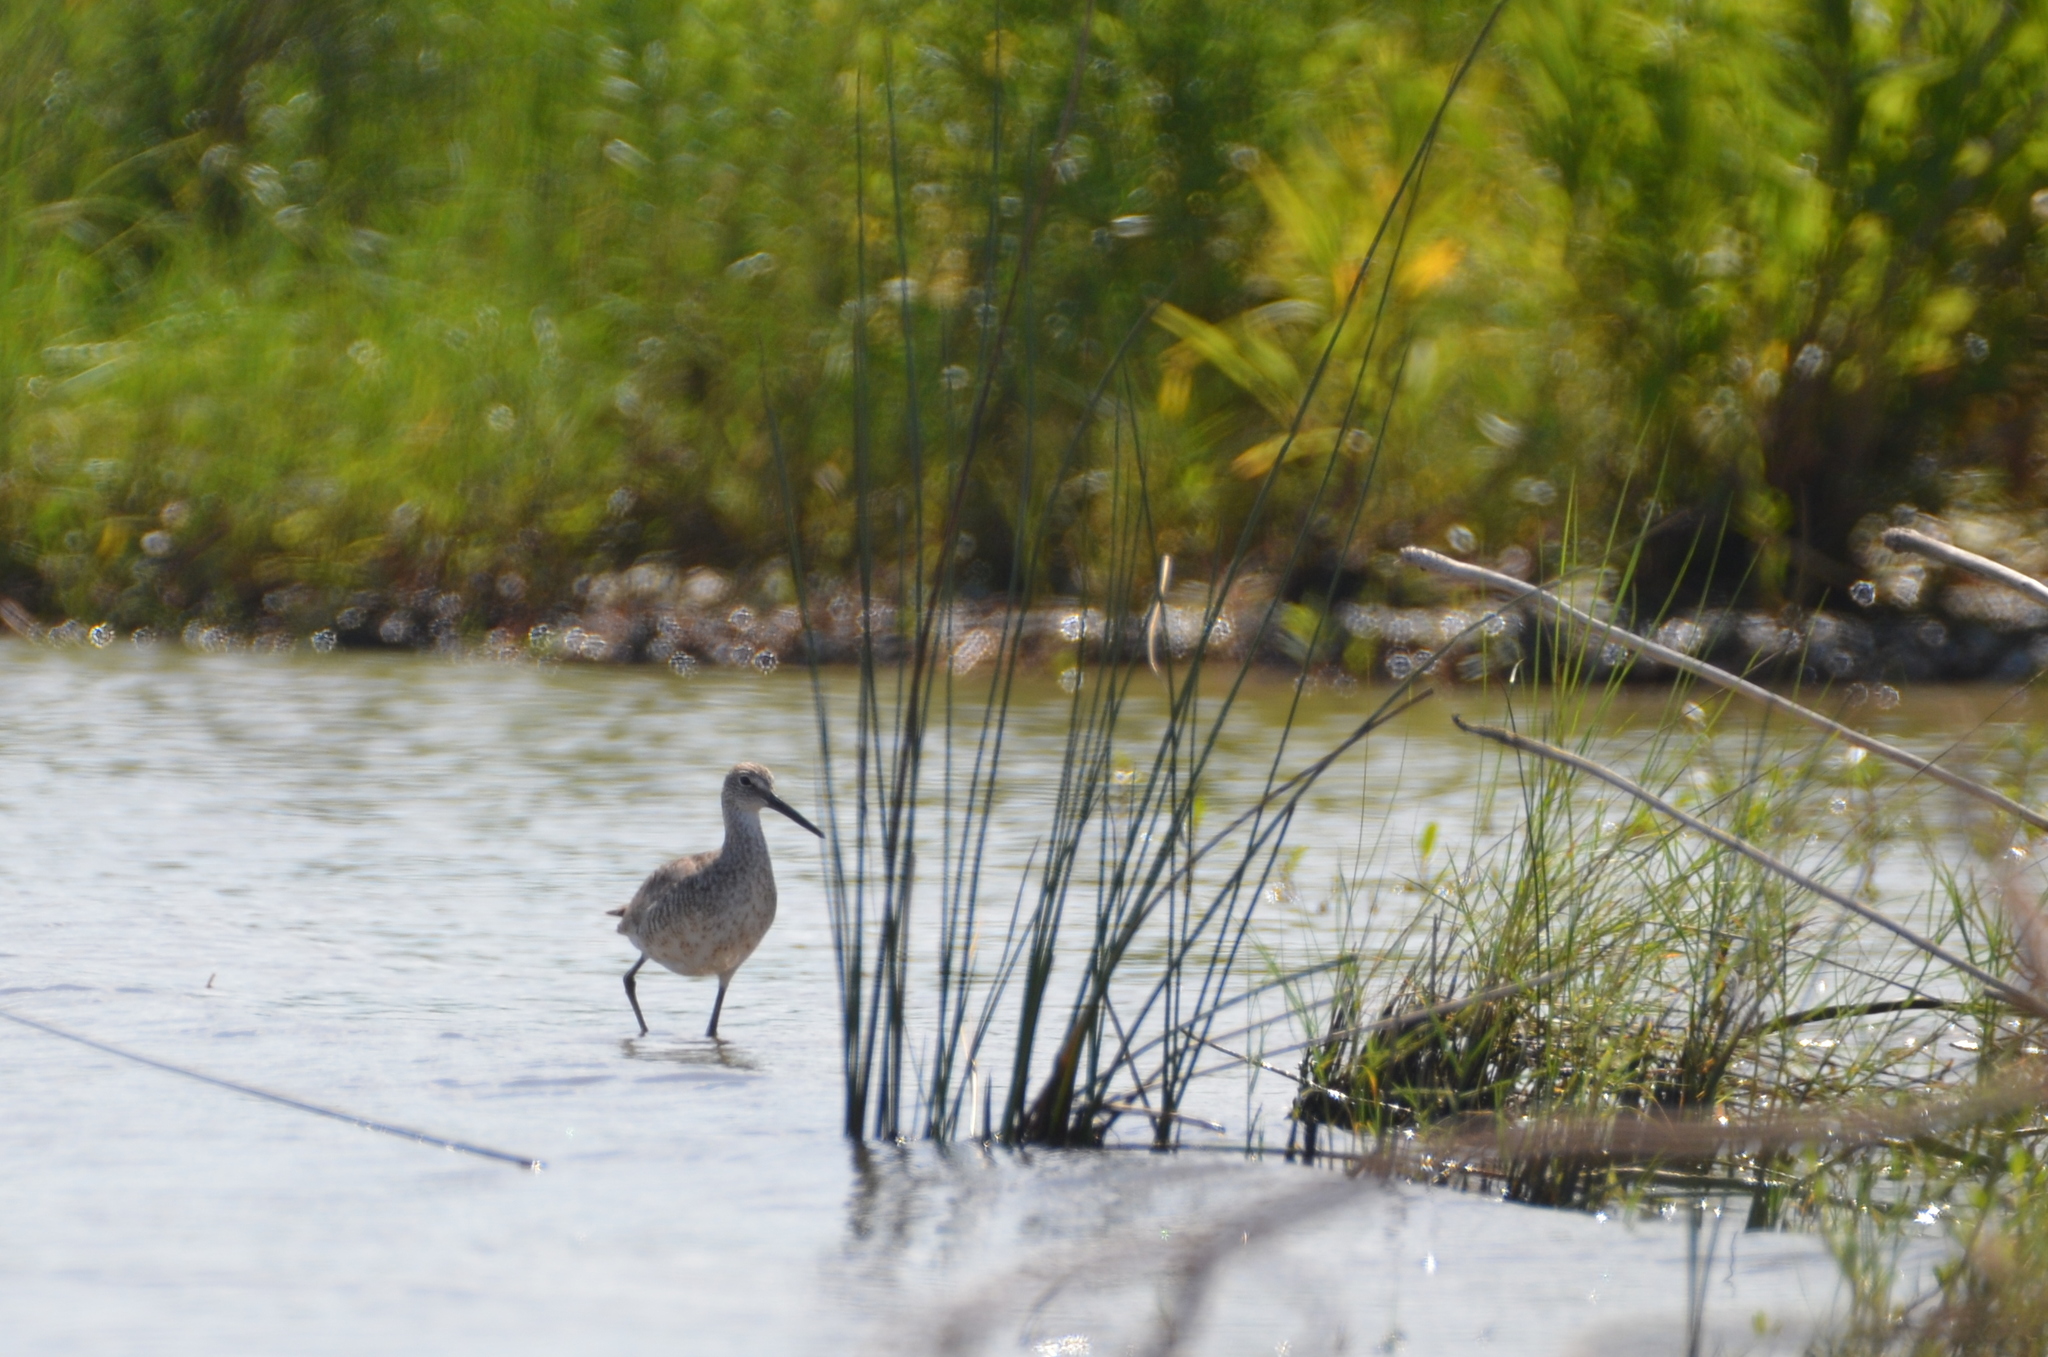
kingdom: Animalia
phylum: Chordata
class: Aves
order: Charadriiformes
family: Scolopacidae
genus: Tringa
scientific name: Tringa semipalmata
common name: Willet
